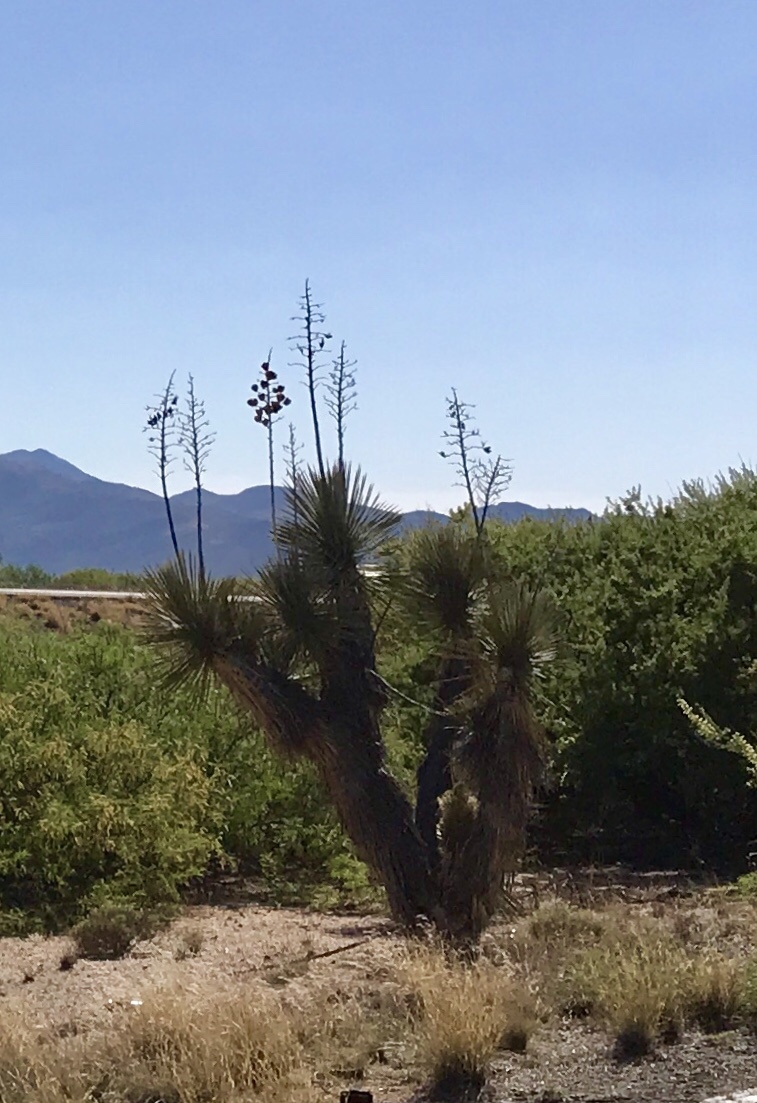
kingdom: Plantae
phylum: Tracheophyta
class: Liliopsida
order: Asparagales
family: Asparagaceae
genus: Yucca
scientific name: Yucca elata
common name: Palmella
